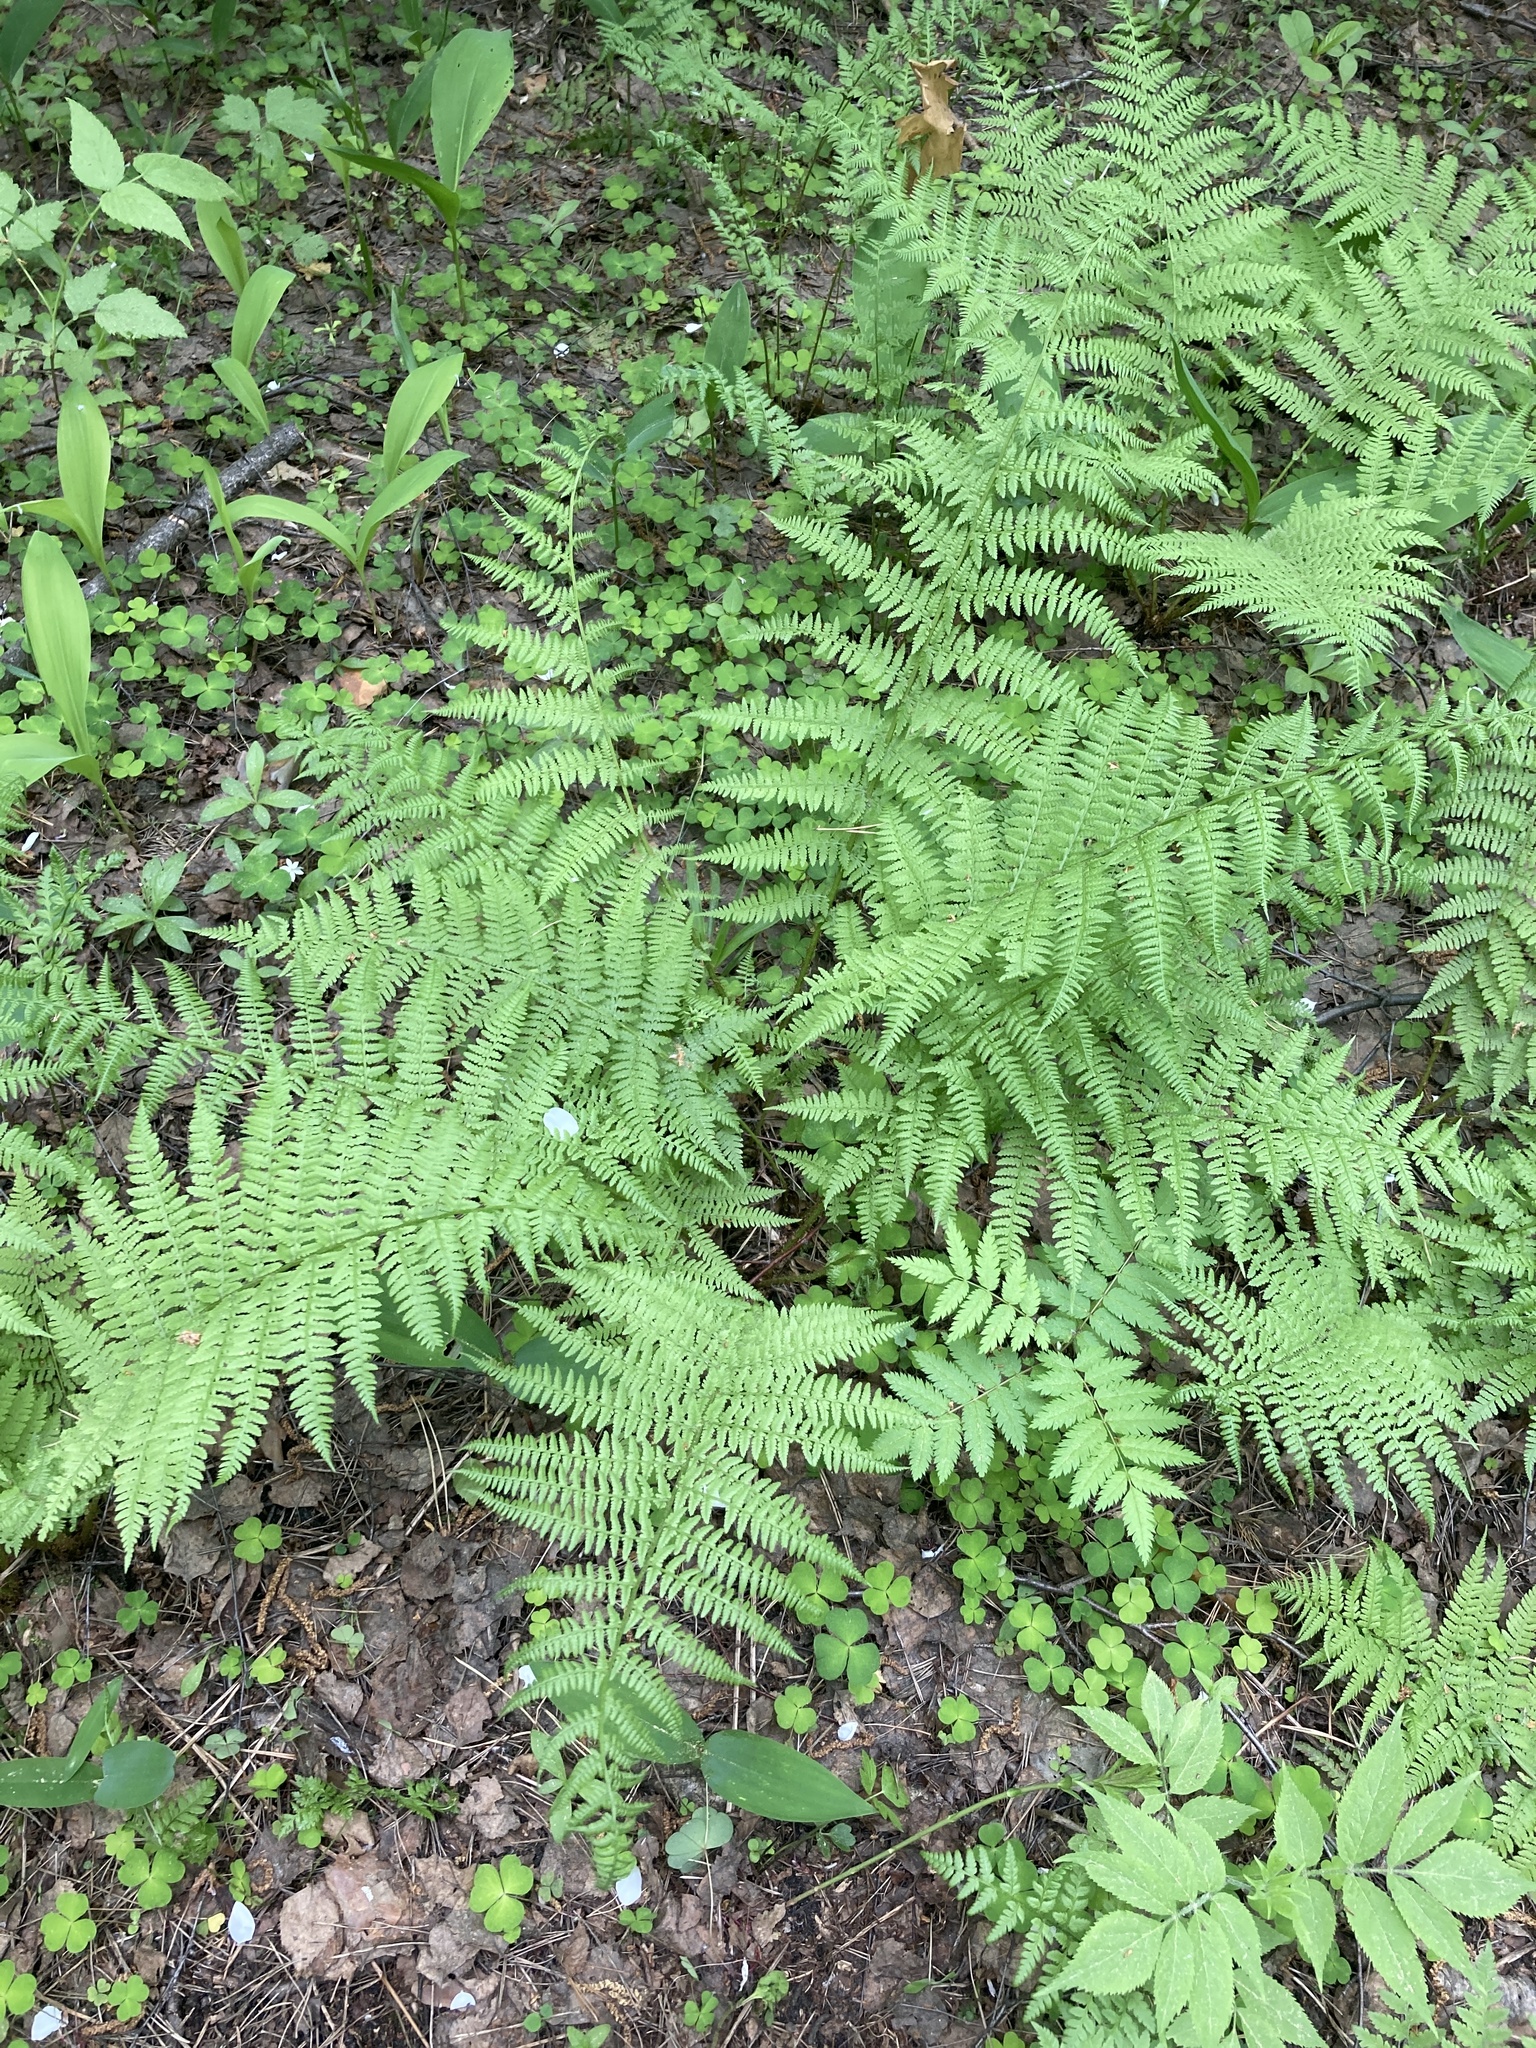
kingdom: Plantae
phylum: Tracheophyta
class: Polypodiopsida
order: Polypodiales
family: Athyriaceae
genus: Athyrium
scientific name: Athyrium filix-femina
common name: Lady fern
